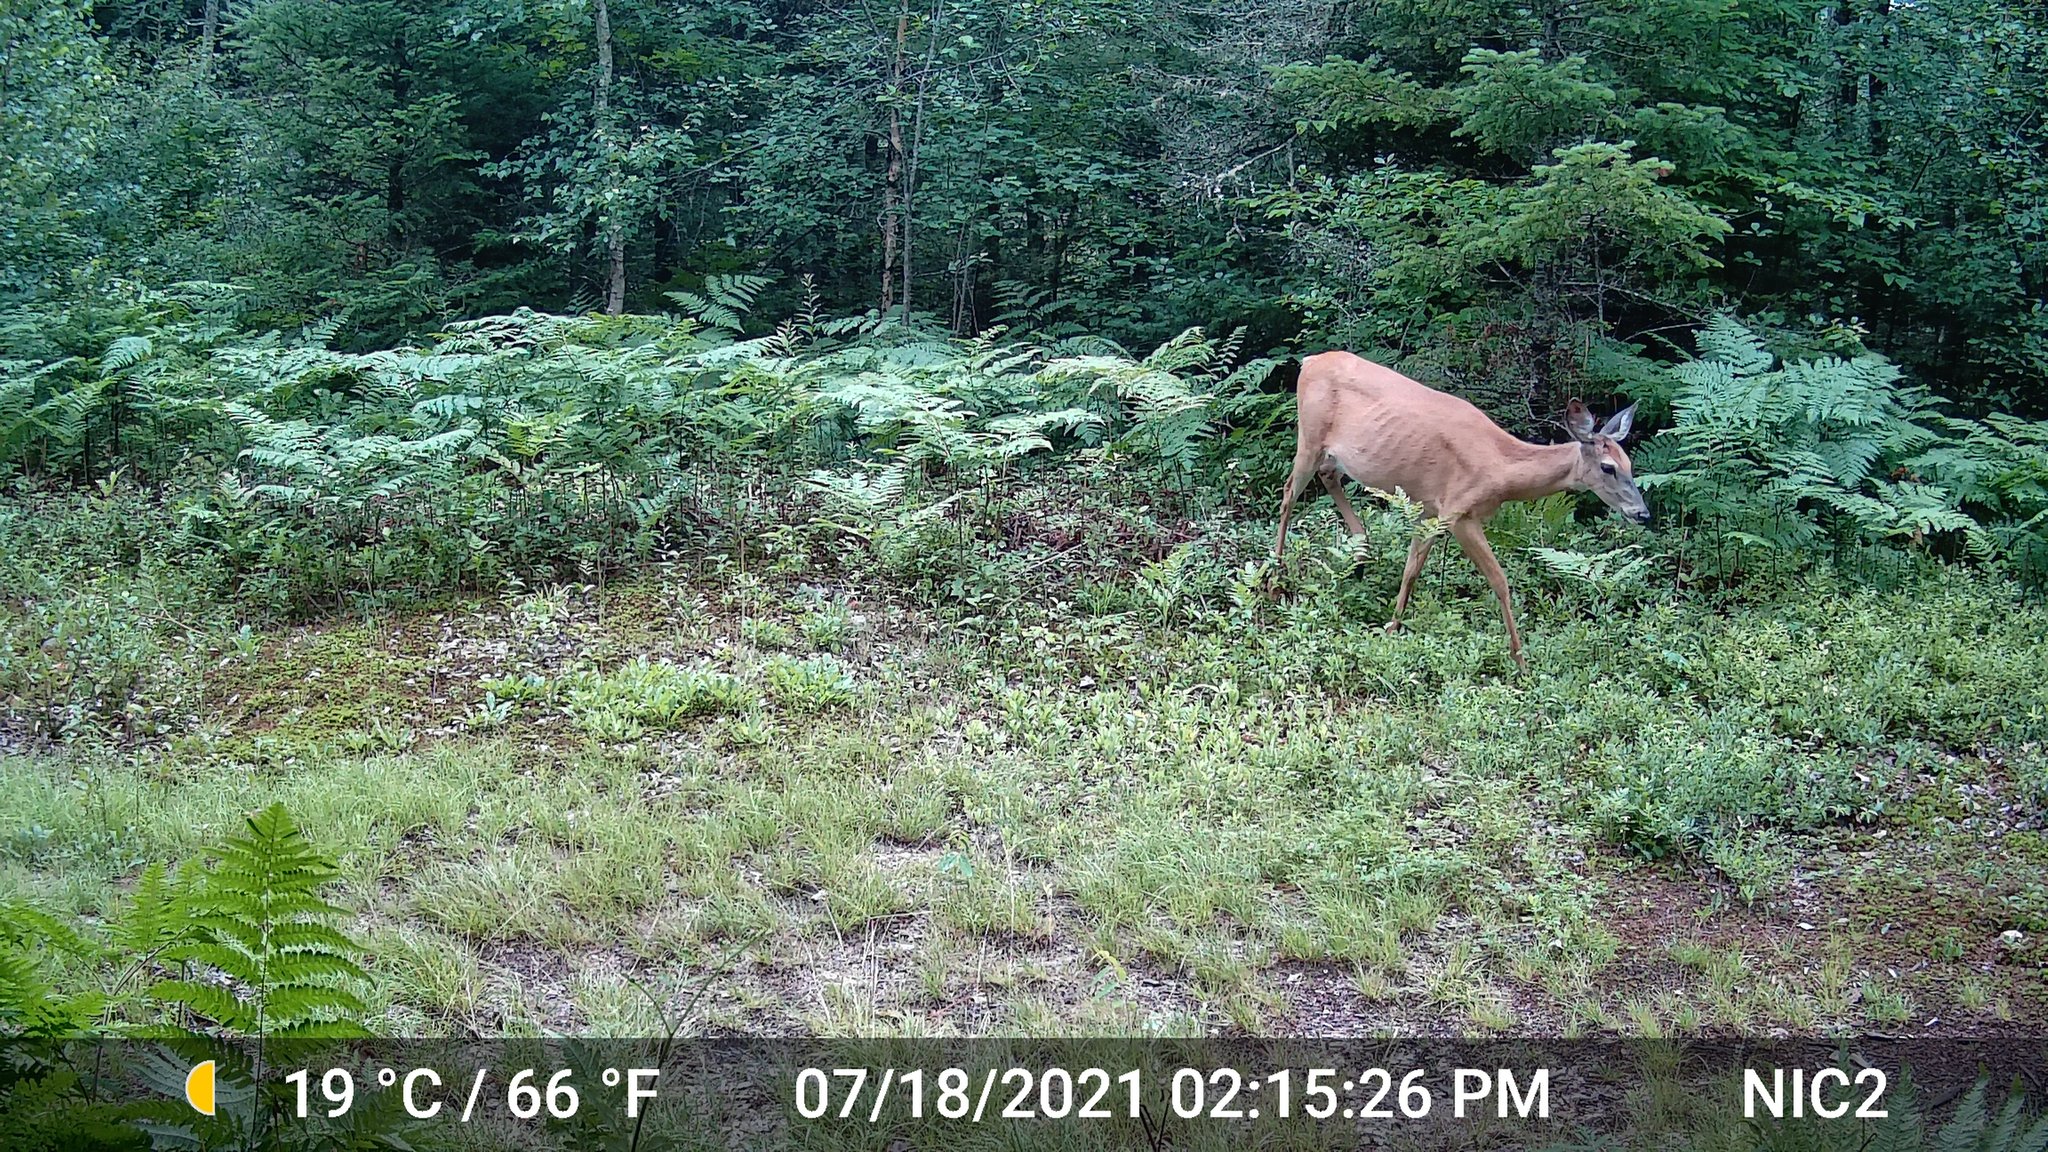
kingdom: Animalia
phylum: Chordata
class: Mammalia
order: Artiodactyla
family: Cervidae
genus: Odocoileus
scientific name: Odocoileus virginianus
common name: White-tailed deer
